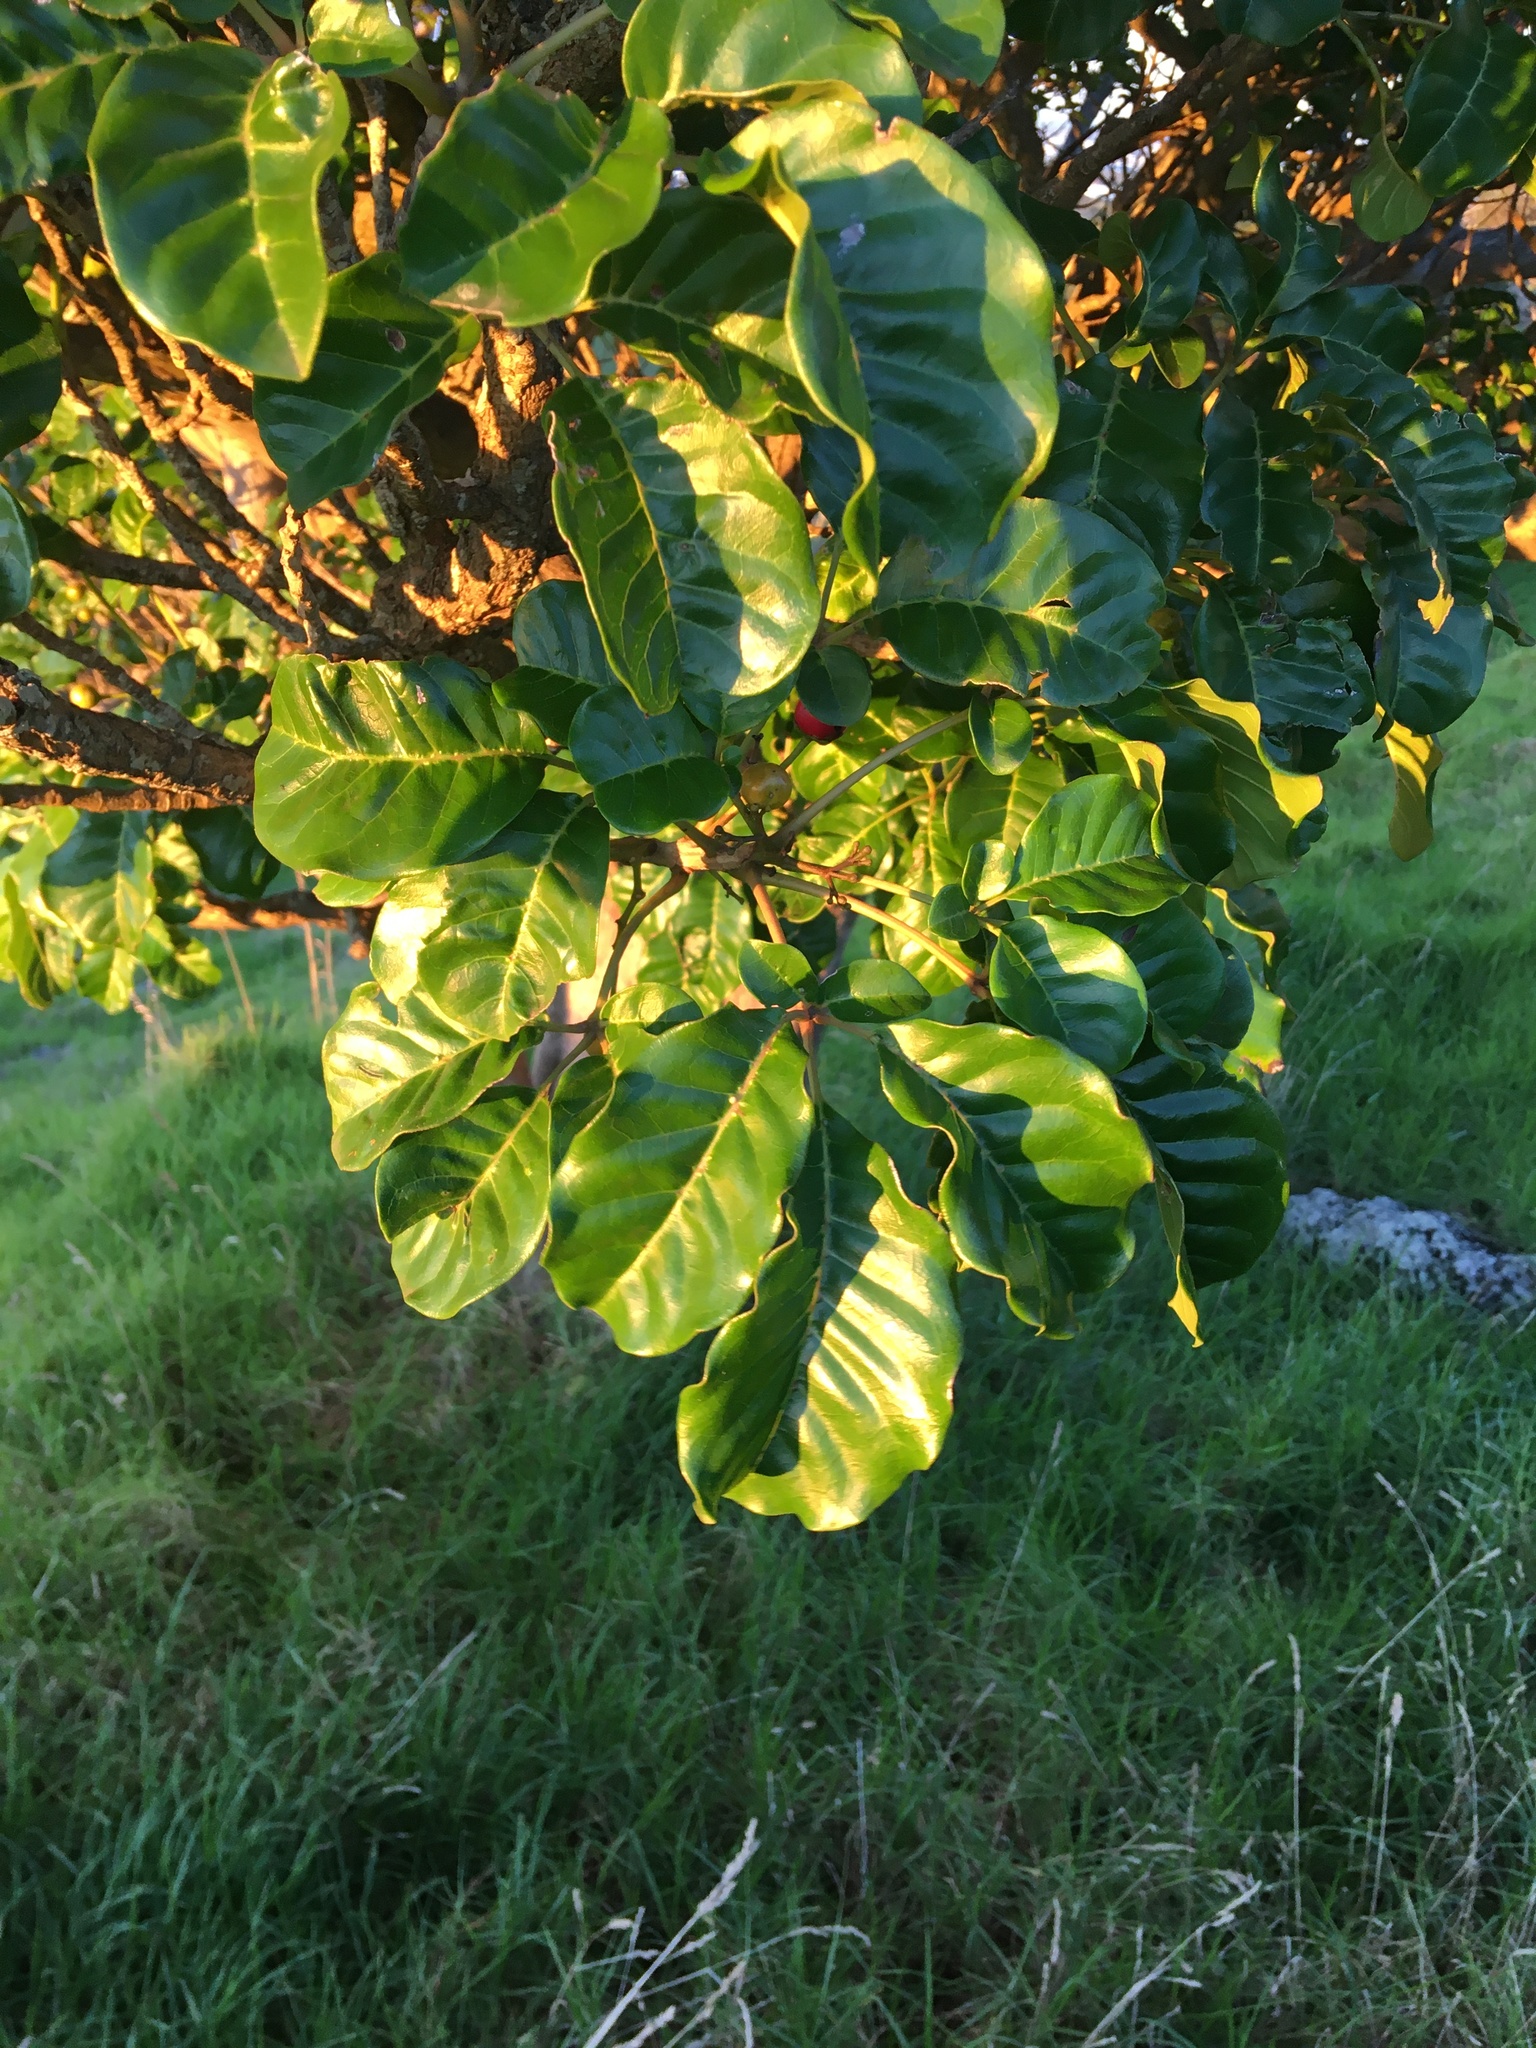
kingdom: Plantae
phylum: Tracheophyta
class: Magnoliopsida
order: Lamiales
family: Lamiaceae
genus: Vitex
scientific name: Vitex lucens
